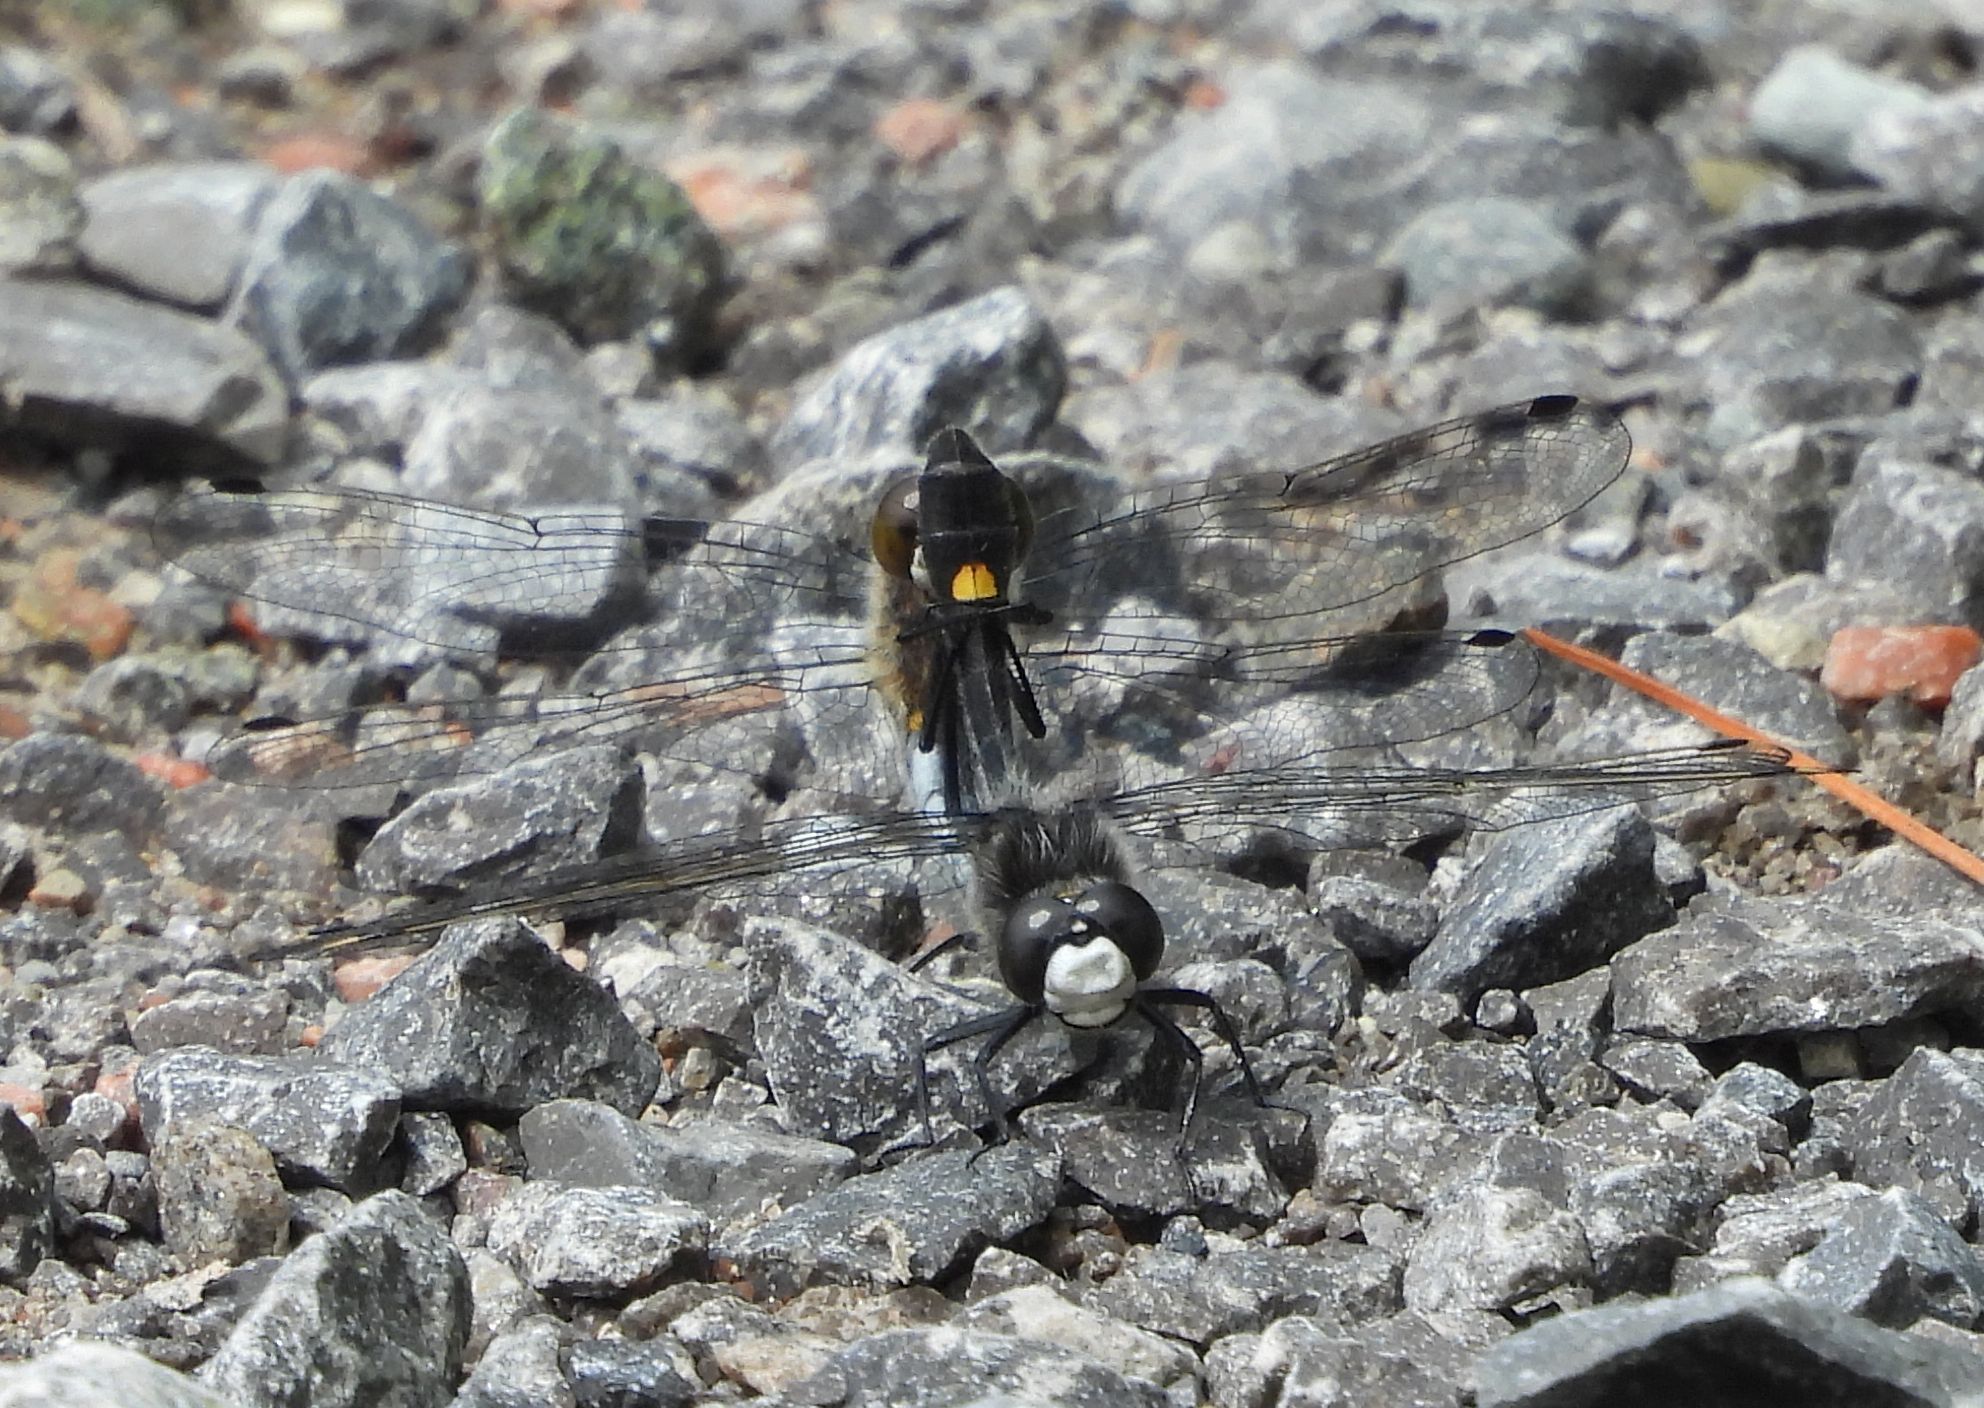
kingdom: Animalia
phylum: Arthropoda
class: Insecta
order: Odonata
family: Libellulidae
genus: Leucorrhinia
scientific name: Leucorrhinia intacta
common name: Dot-tailed whiteface
